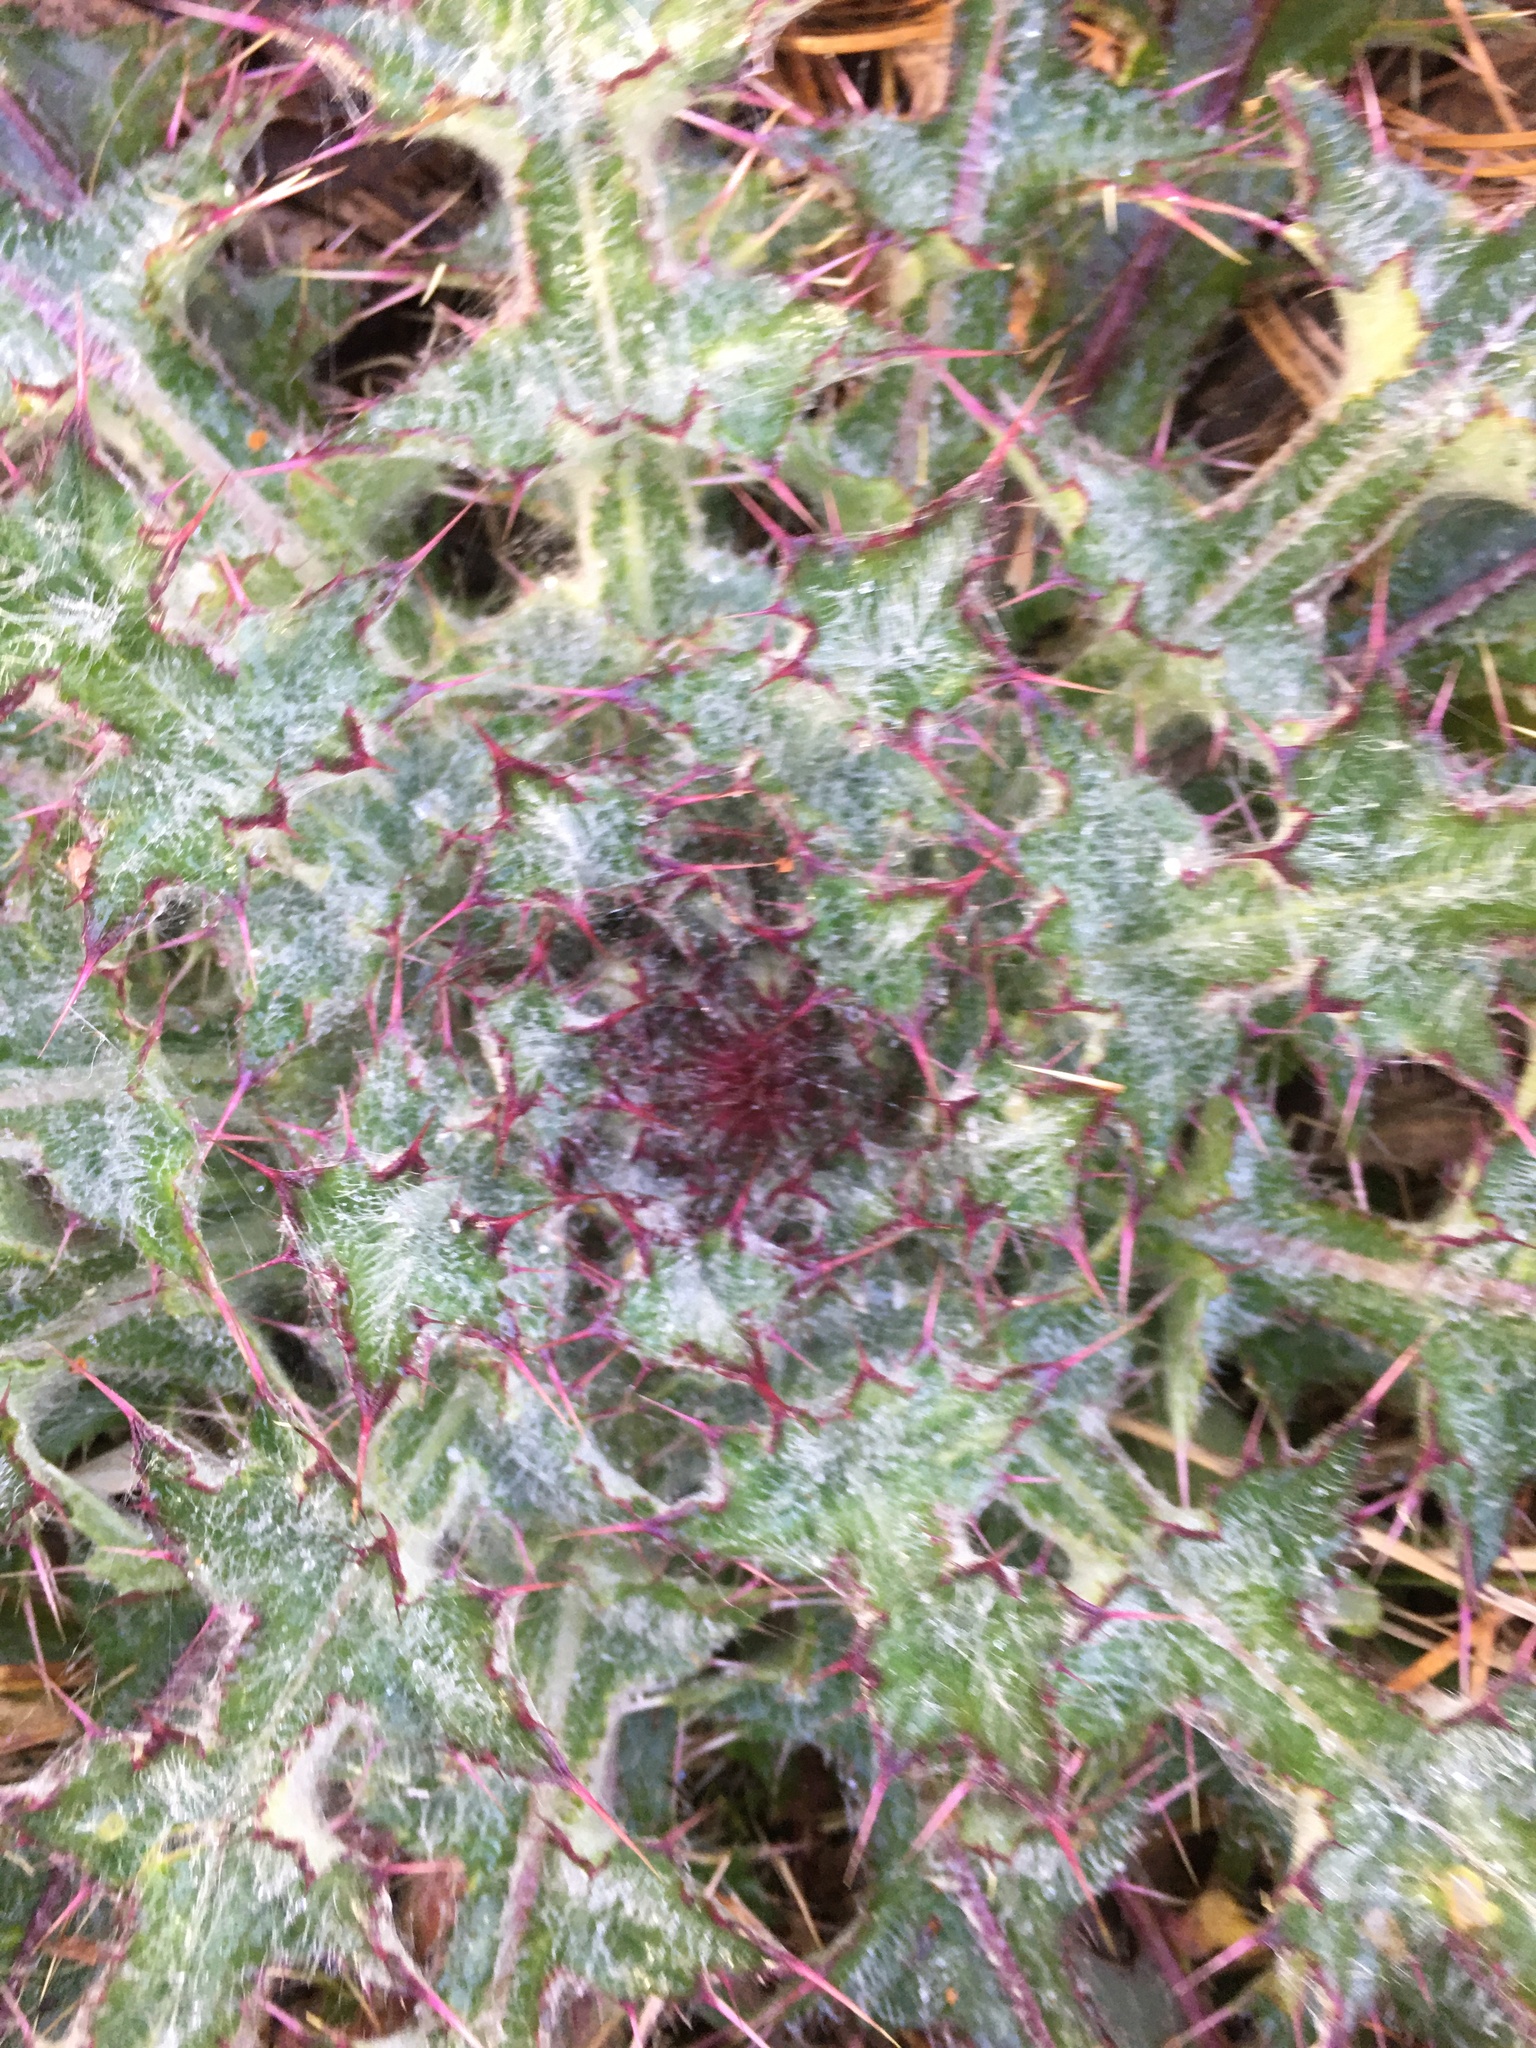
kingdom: Plantae
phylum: Tracheophyta
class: Magnoliopsida
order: Asterales
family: Asteraceae
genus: Cirsium
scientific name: Cirsium horridulum
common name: Bristly thistle
